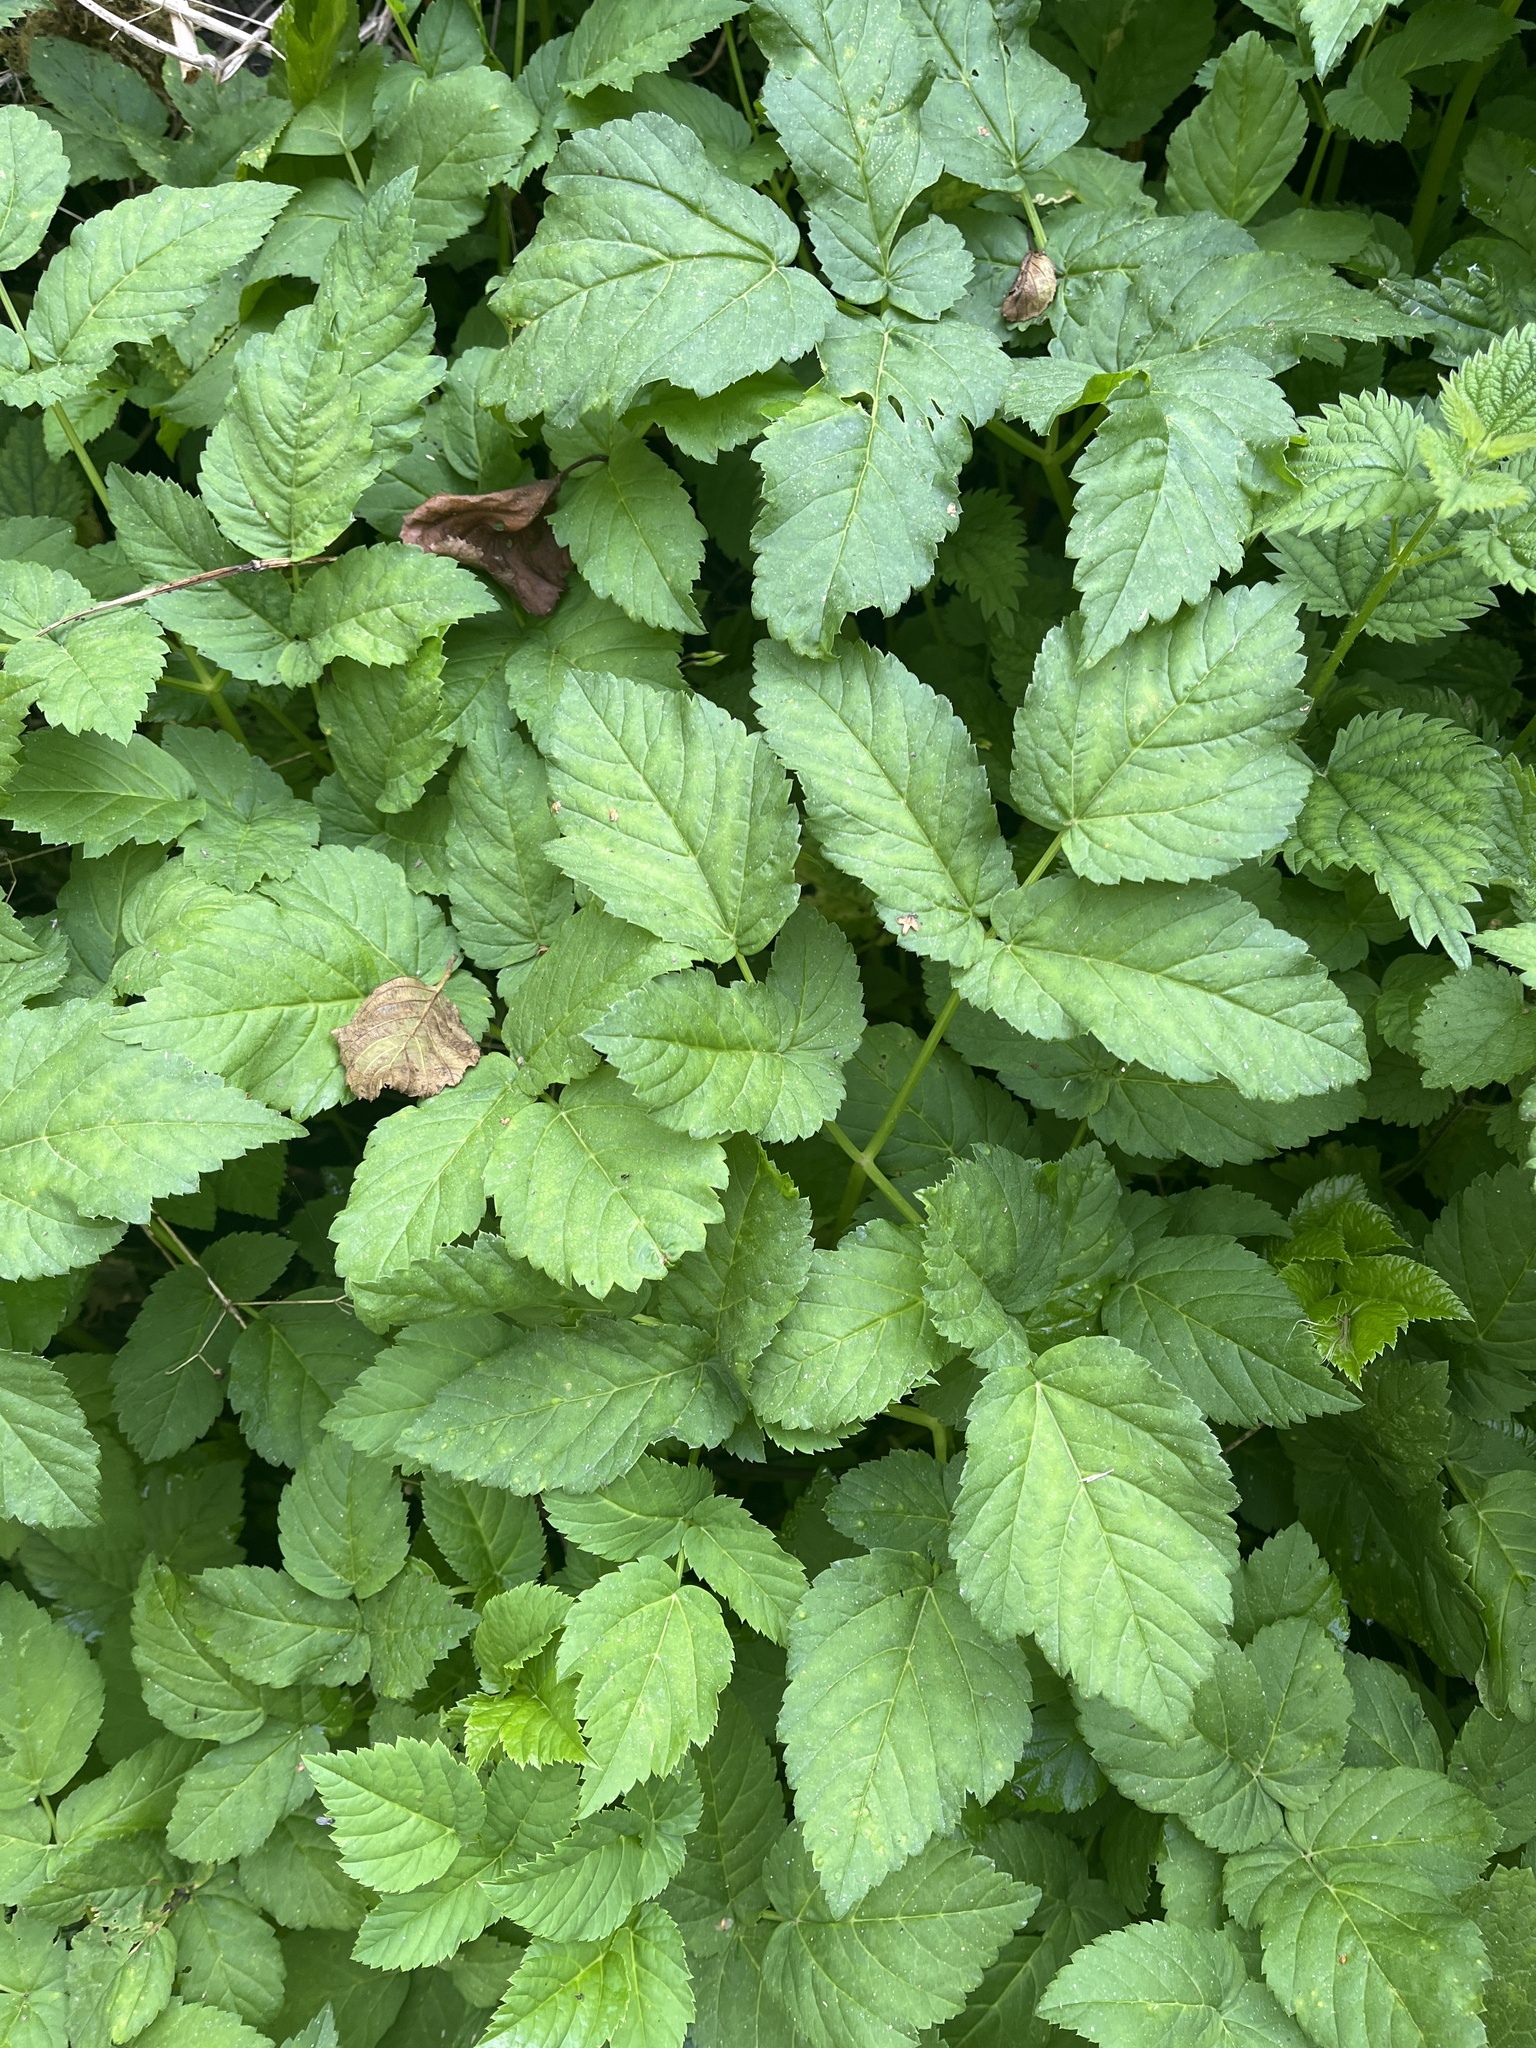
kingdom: Plantae
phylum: Tracheophyta
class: Magnoliopsida
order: Apiales
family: Apiaceae
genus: Aegopodium
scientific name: Aegopodium podagraria
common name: Ground-elder
